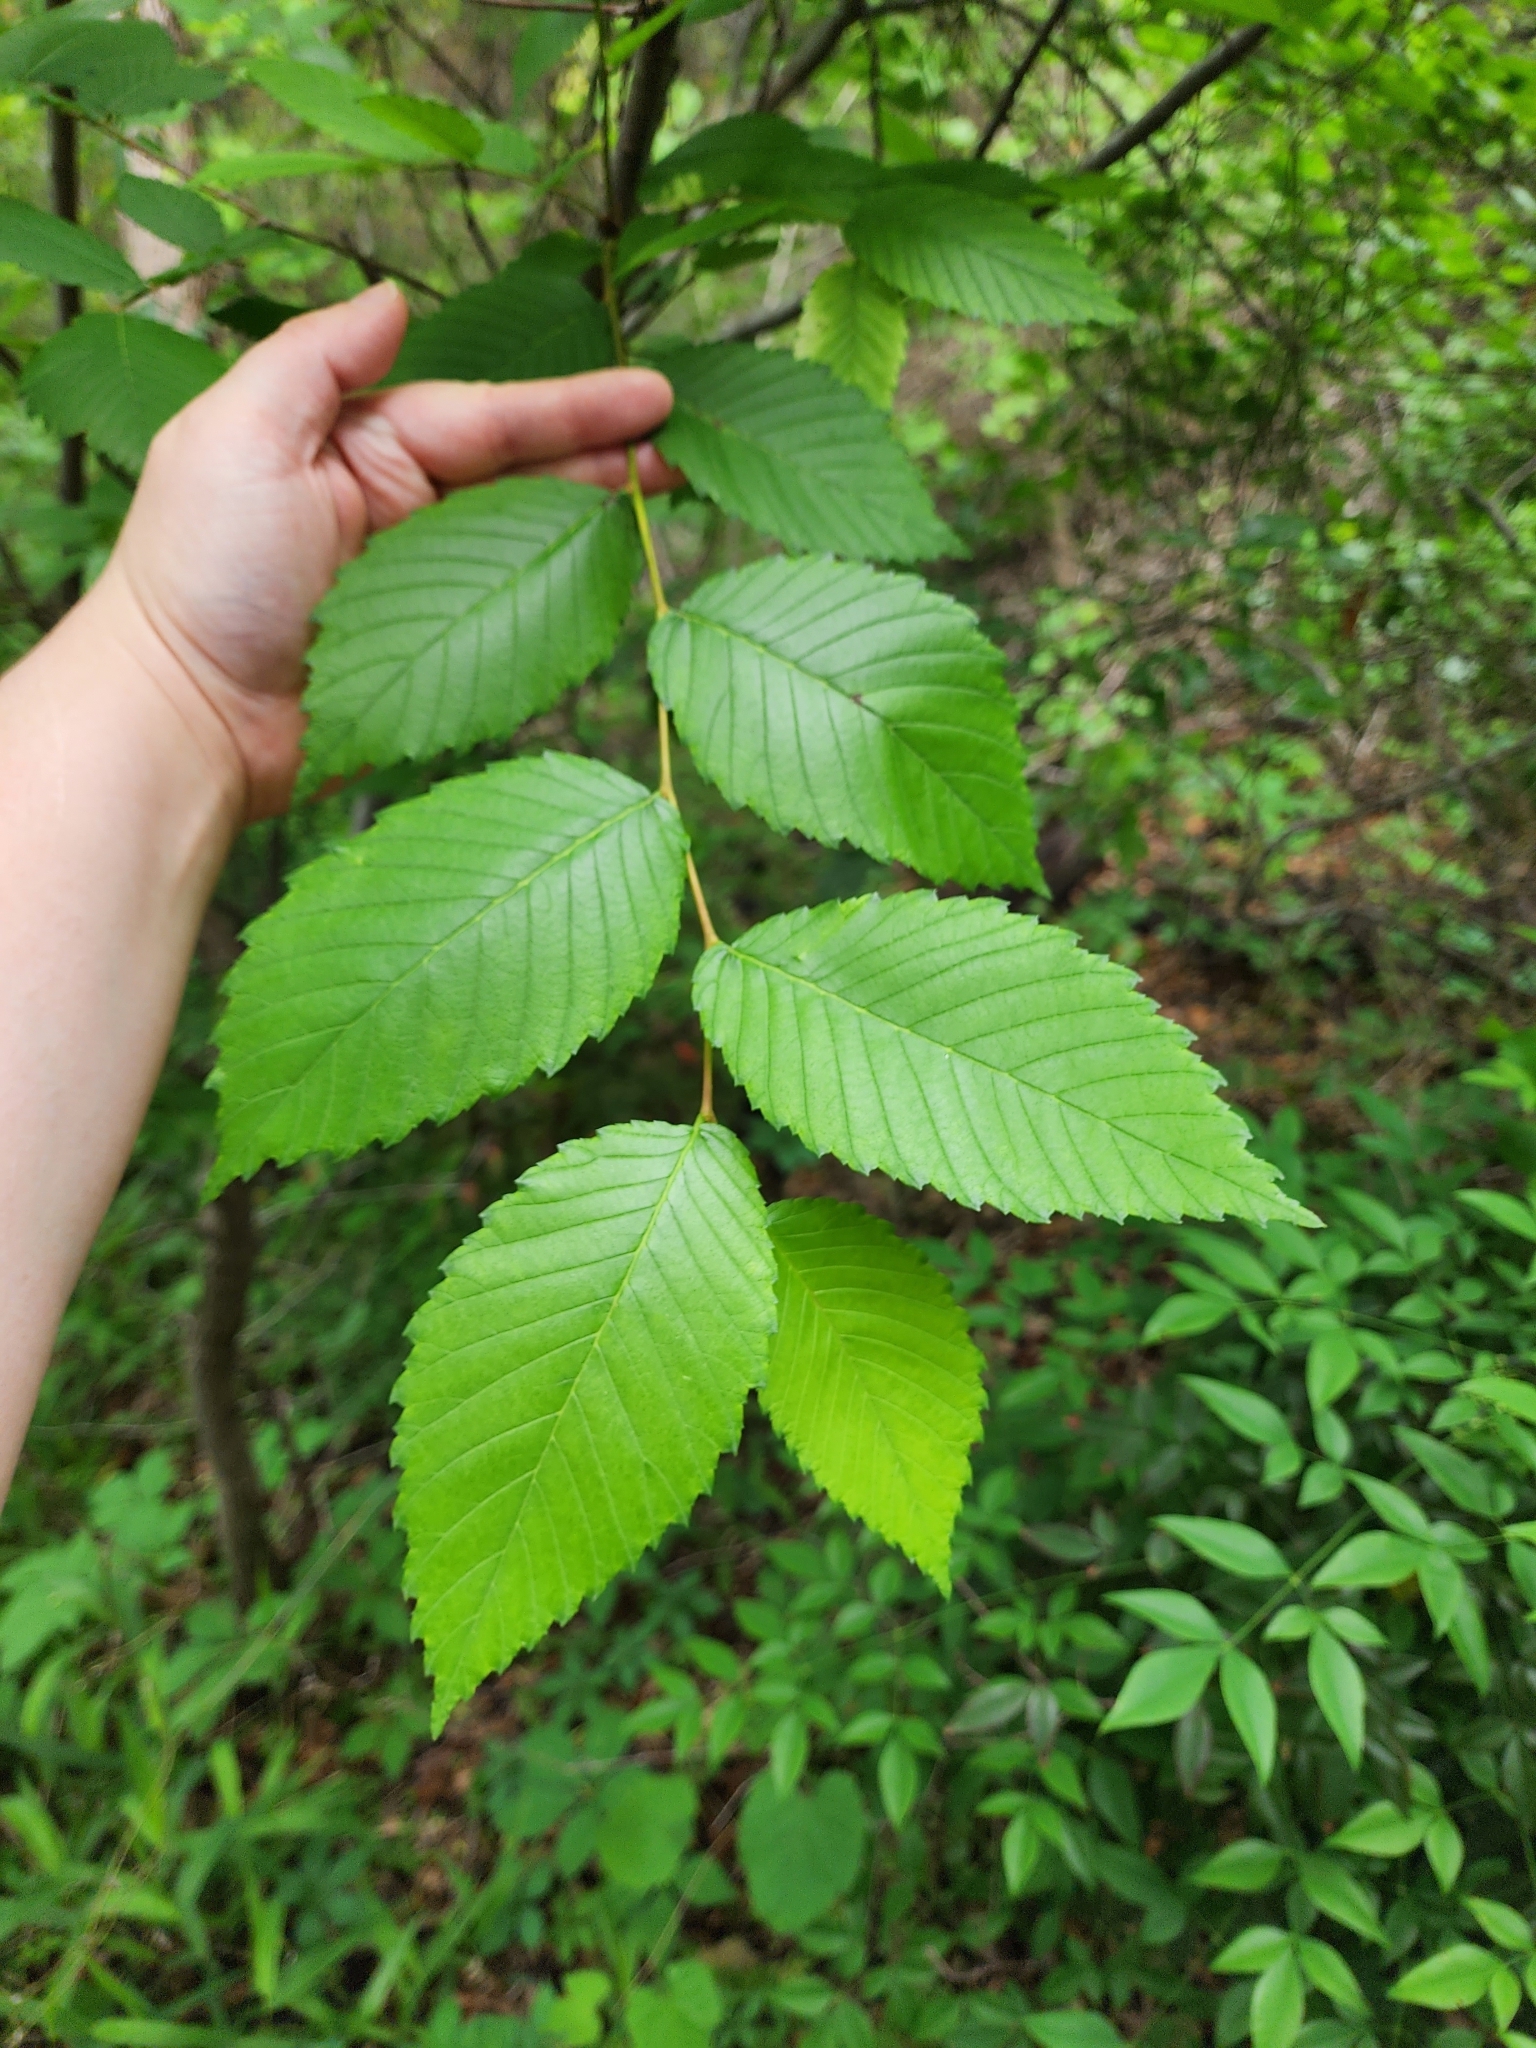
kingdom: Plantae
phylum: Tracheophyta
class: Magnoliopsida
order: Rosales
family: Ulmaceae
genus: Ulmus
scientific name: Ulmus americana
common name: American elm
